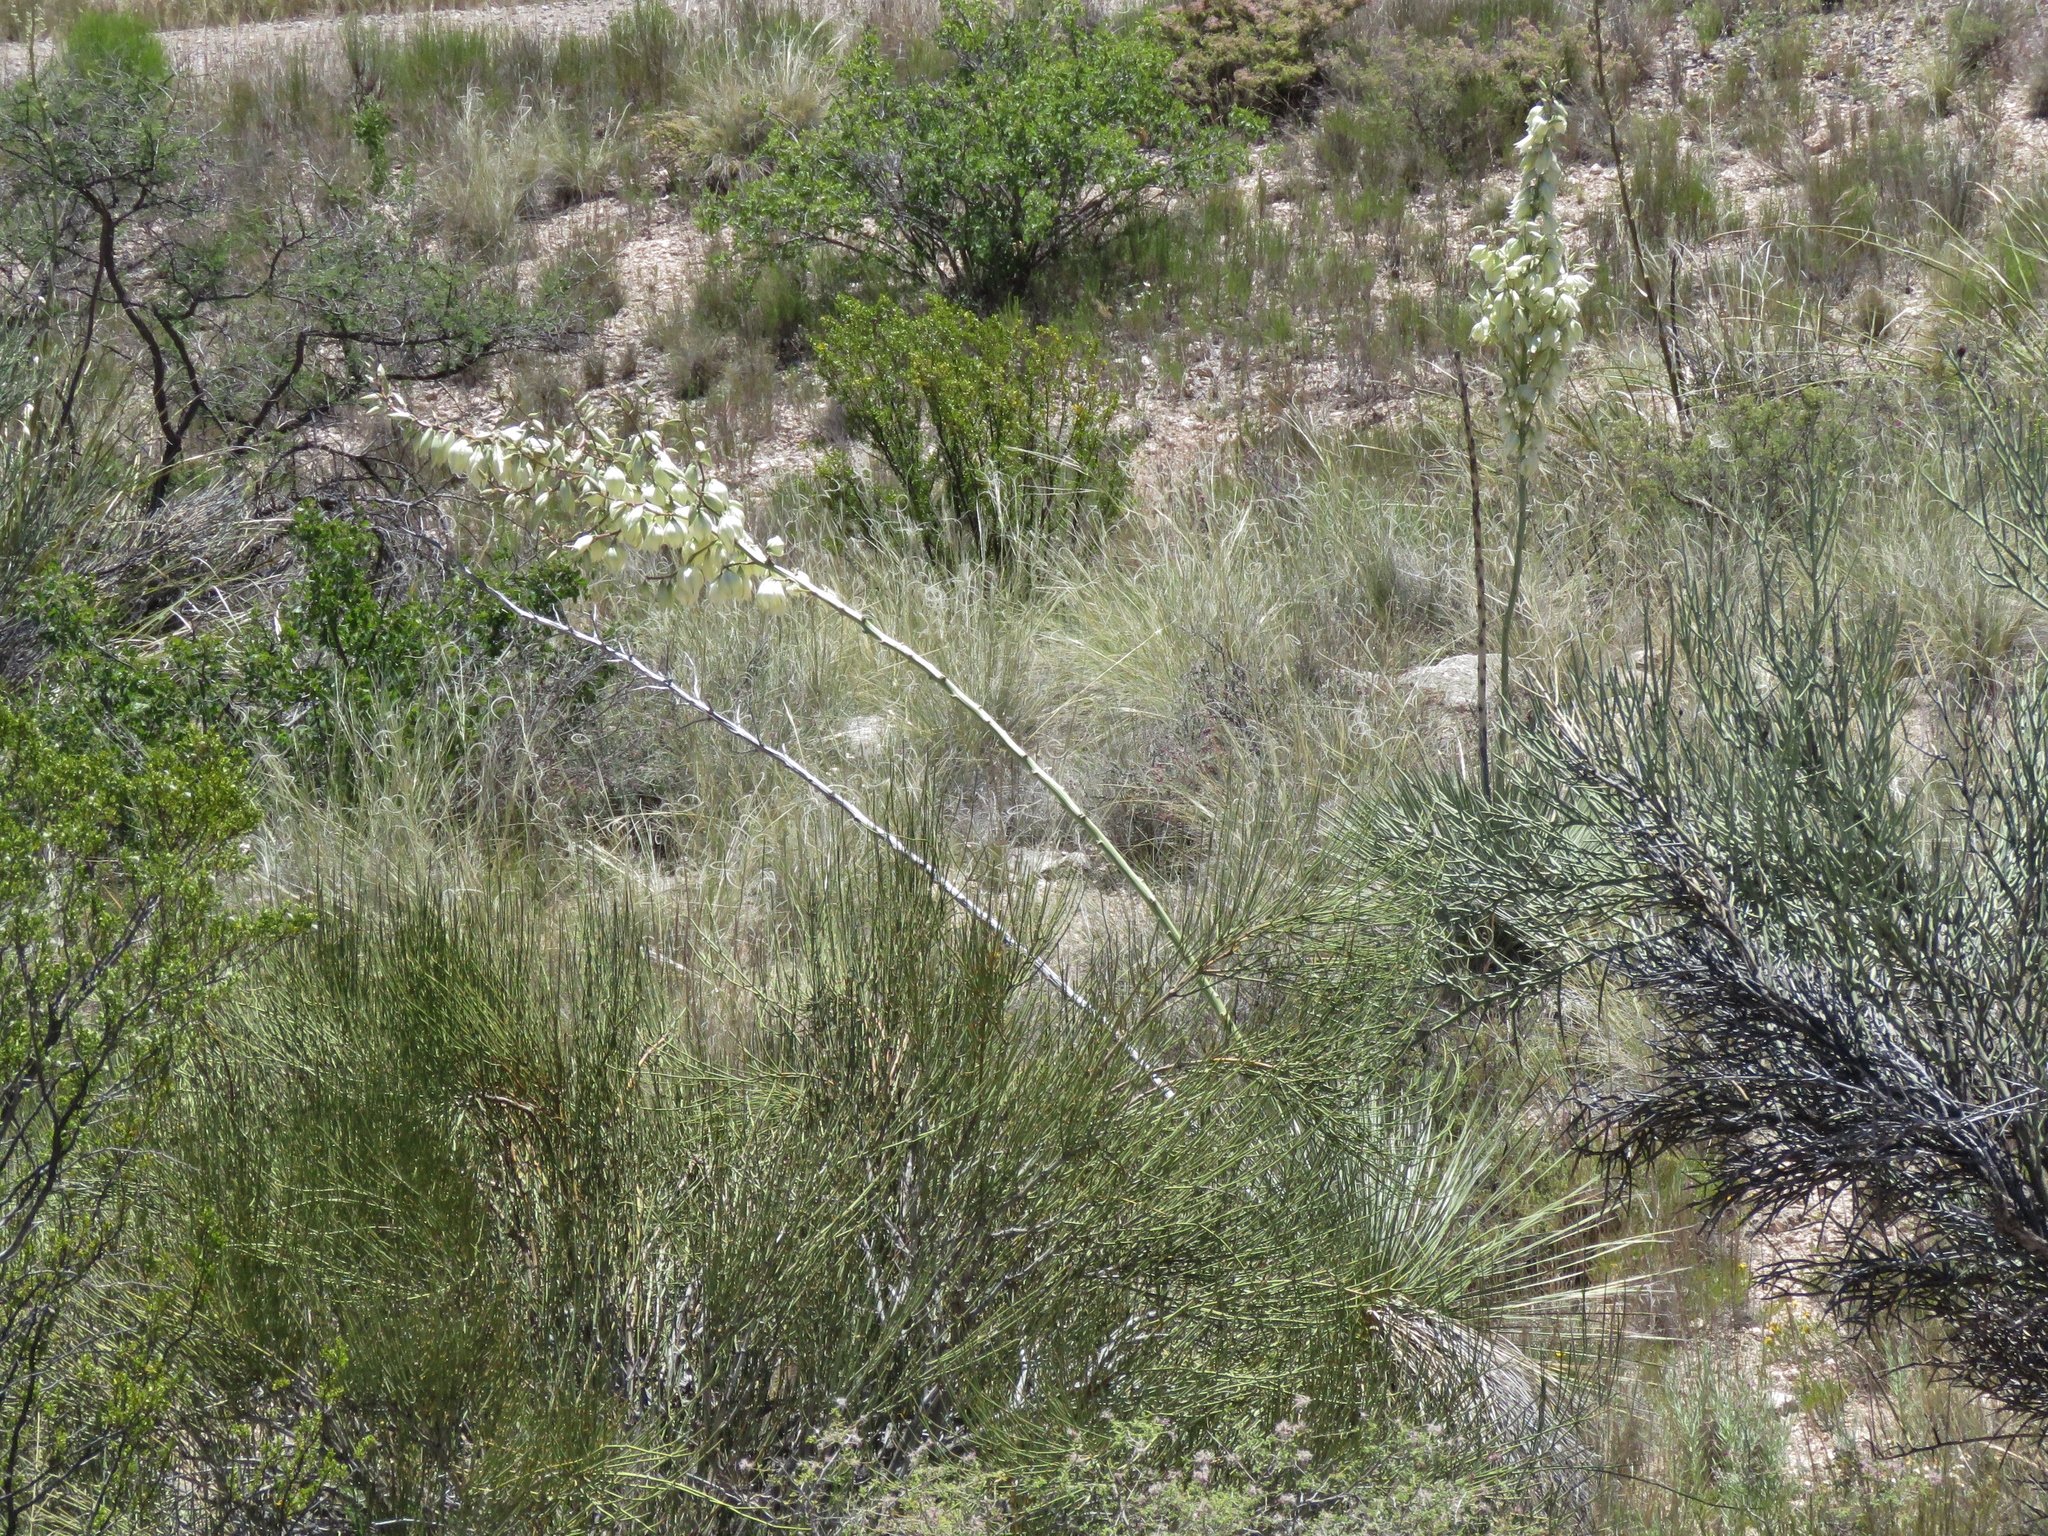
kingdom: Plantae
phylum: Tracheophyta
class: Liliopsida
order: Asparagales
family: Asparagaceae
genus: Yucca
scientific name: Yucca elata
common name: Palmella
